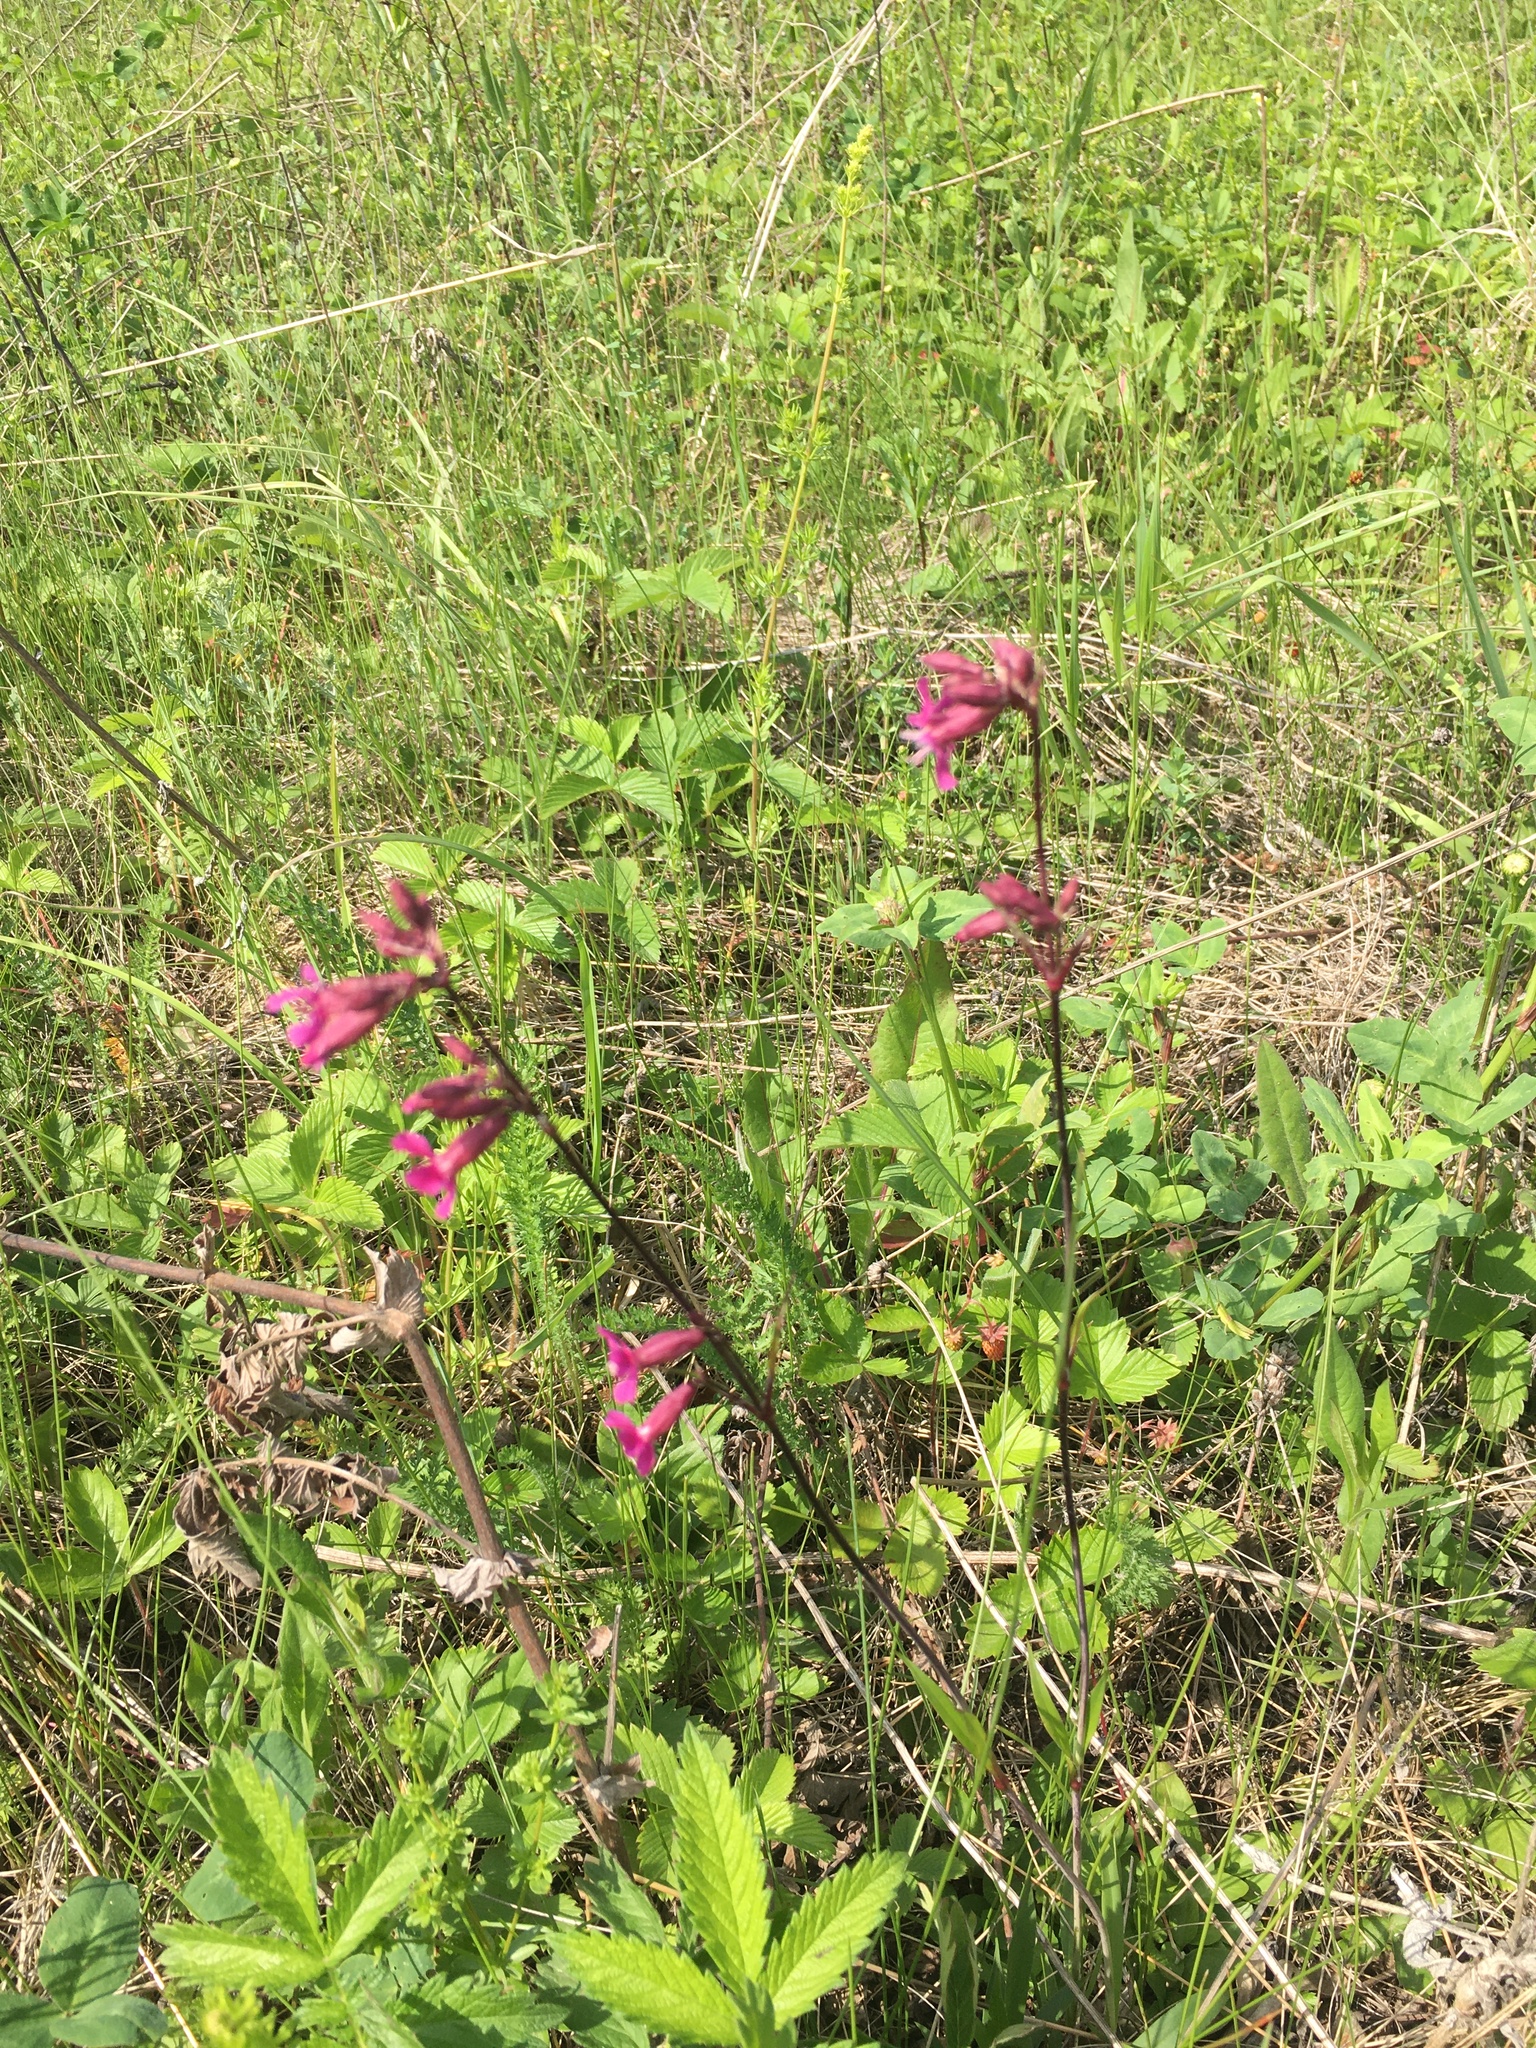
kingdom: Plantae
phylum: Tracheophyta
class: Magnoliopsida
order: Caryophyllales
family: Caryophyllaceae
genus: Viscaria
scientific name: Viscaria vulgaris
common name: Clammy campion
